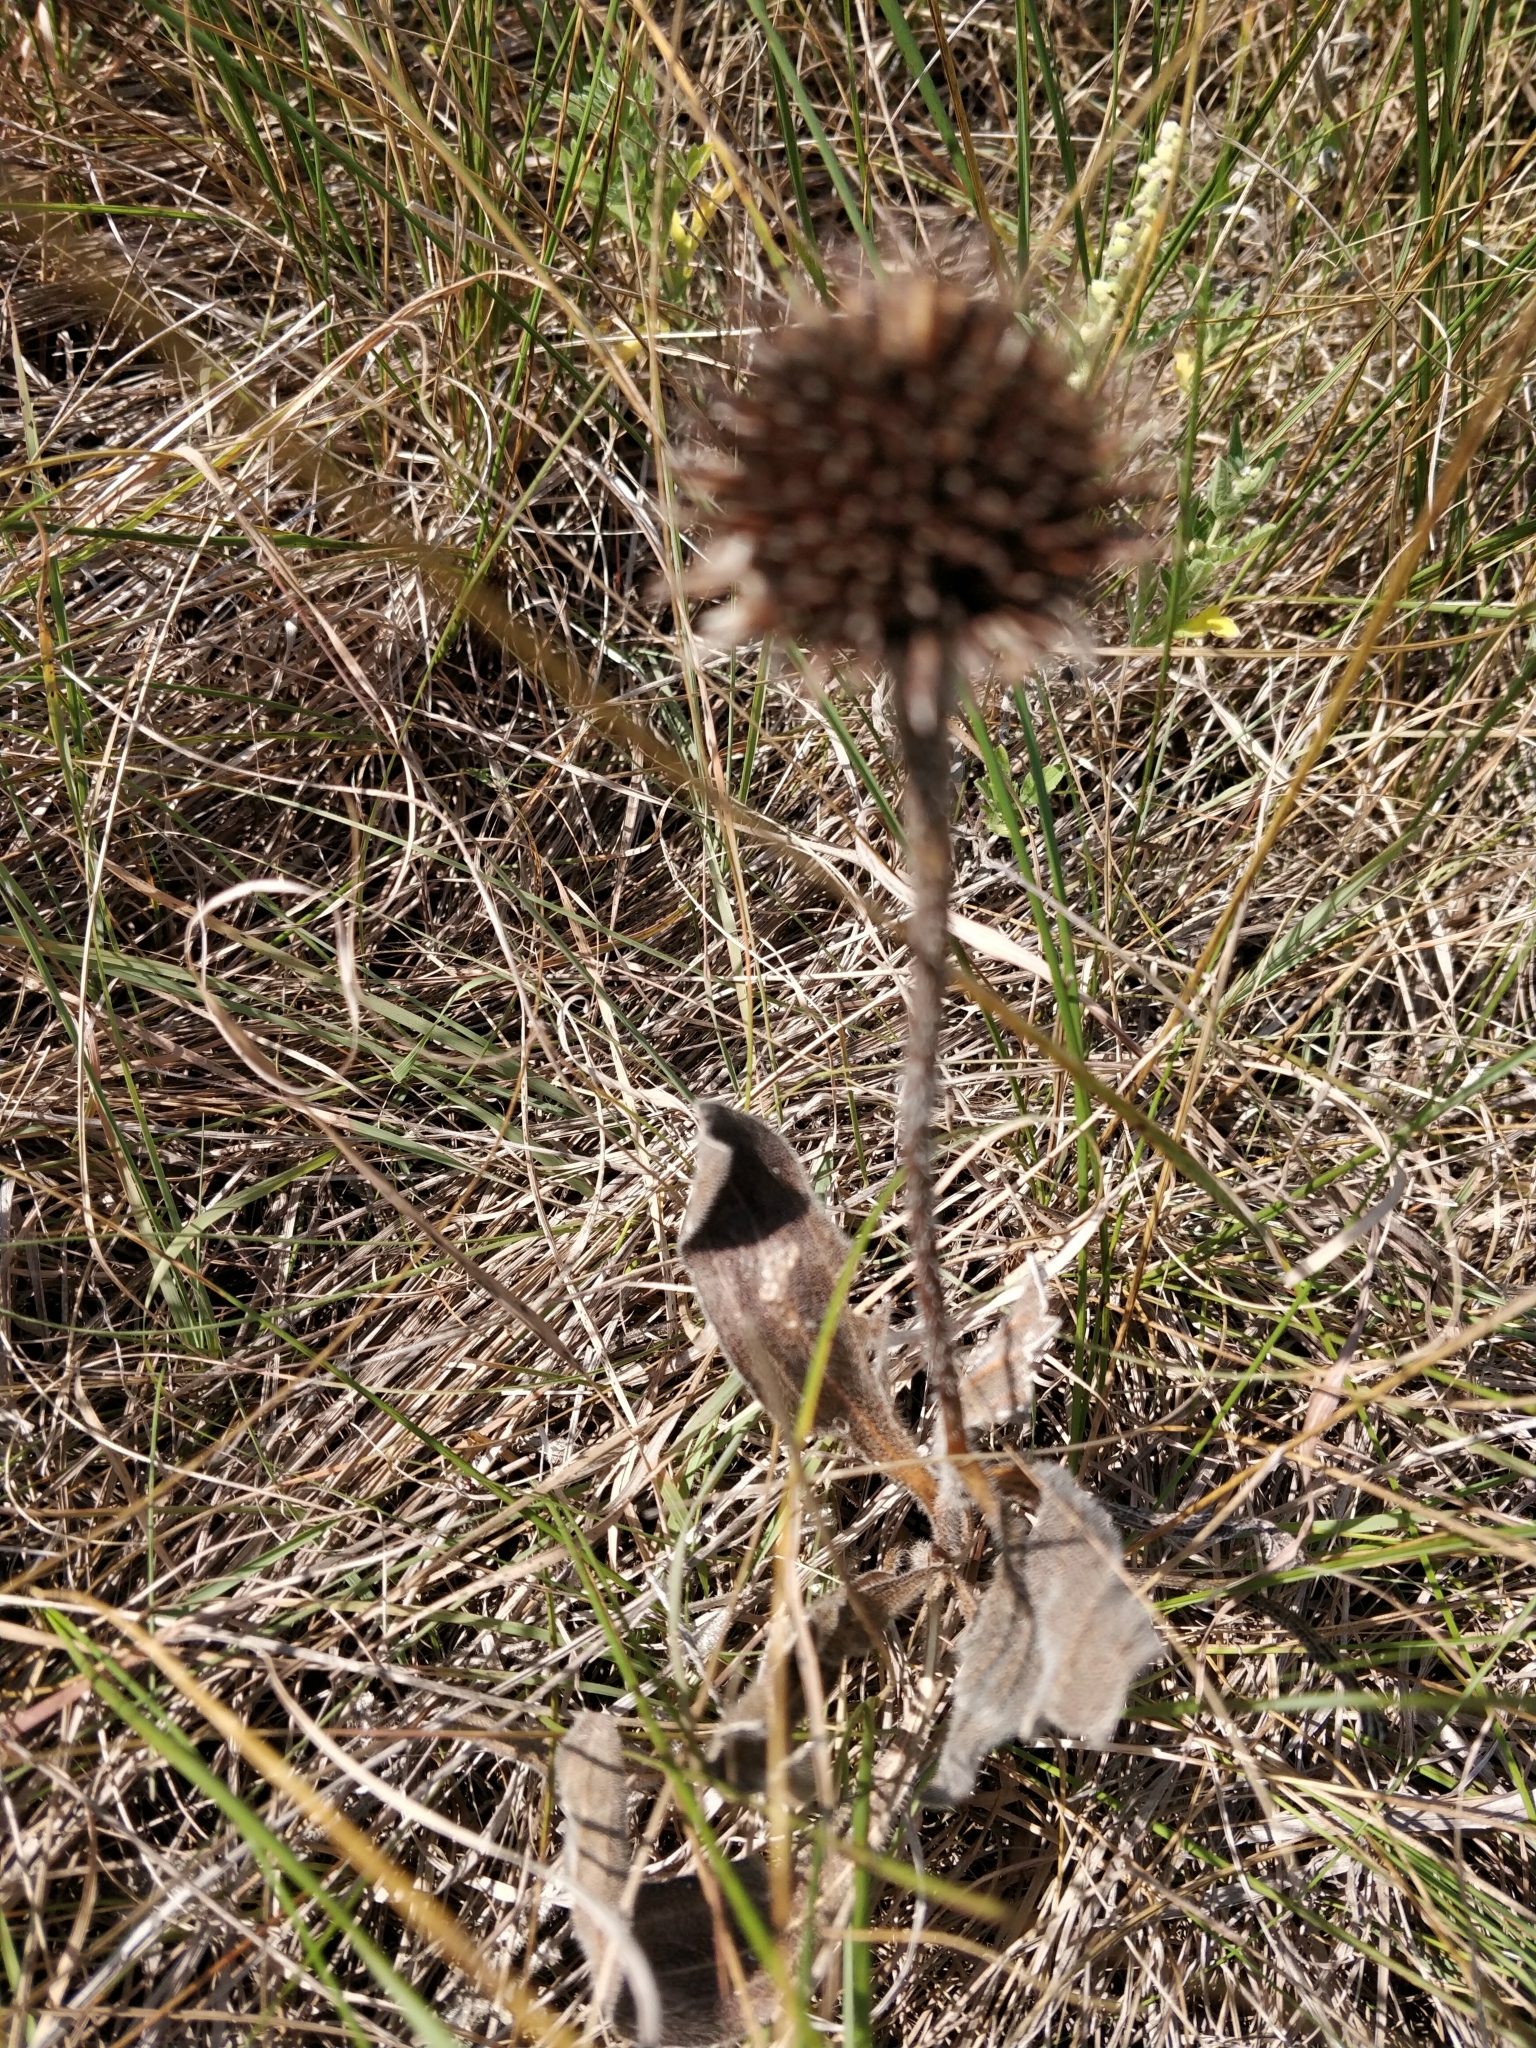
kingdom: Plantae
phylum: Tracheophyta
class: Magnoliopsida
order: Asterales
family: Asteraceae
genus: Echinacea
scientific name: Echinacea angustifolia
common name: Black-sampson echinacea
